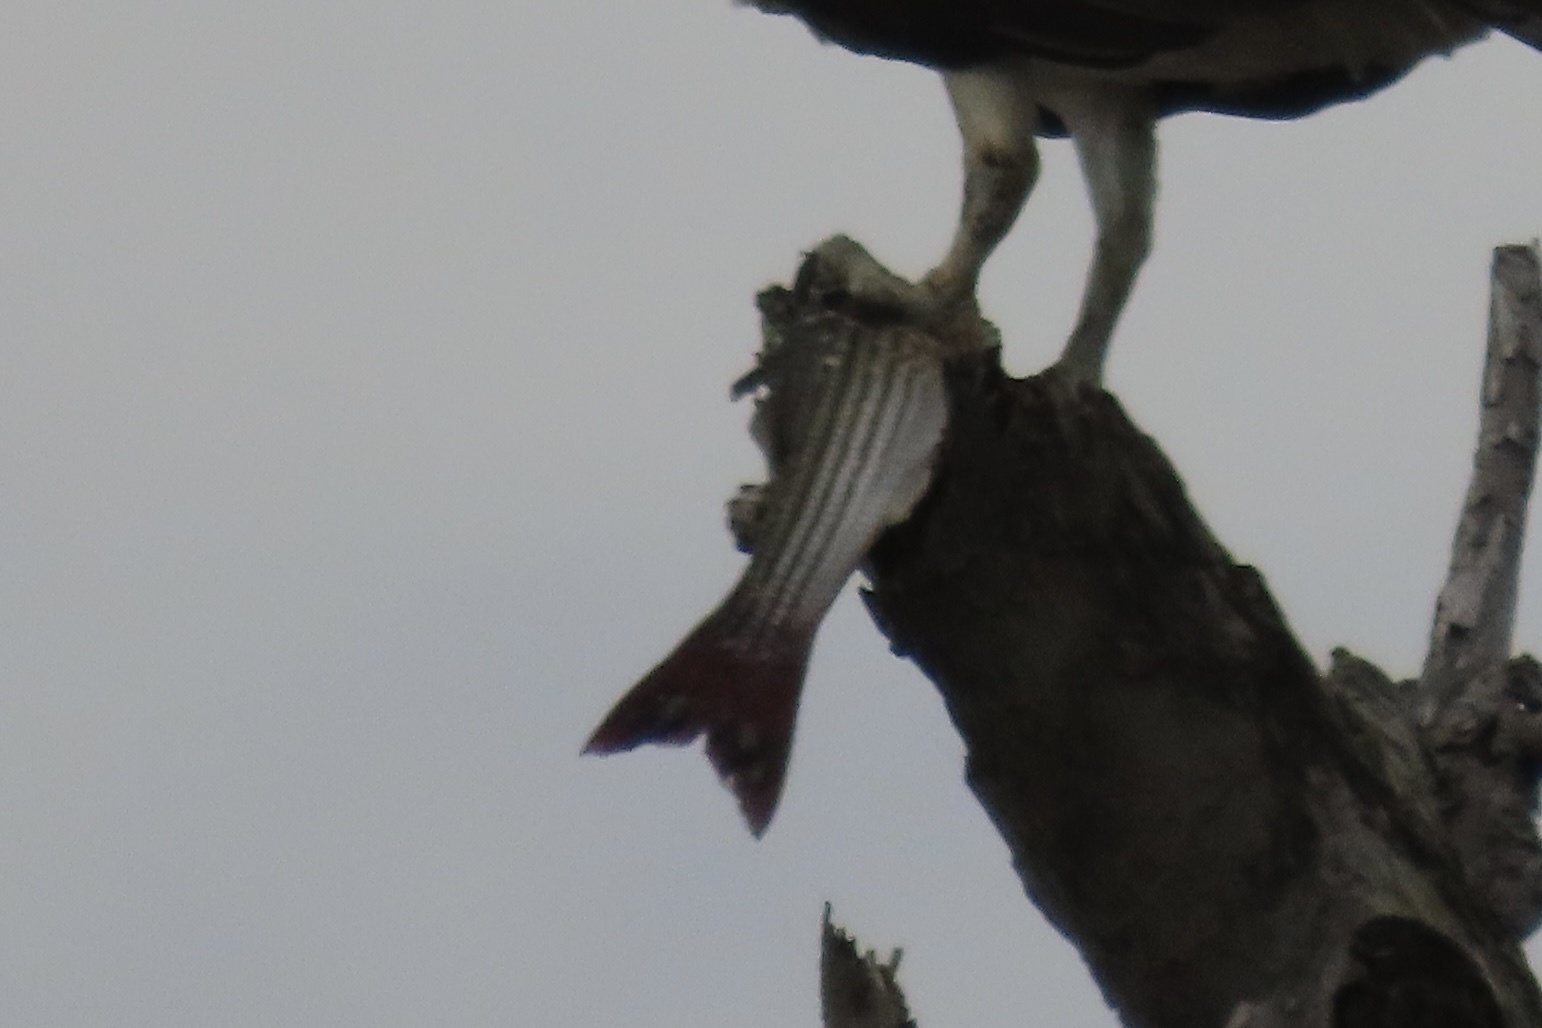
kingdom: Animalia
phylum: Chordata
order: Perciformes
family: Moronidae
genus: Morone
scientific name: Morone saxatilis
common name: Striped bass
